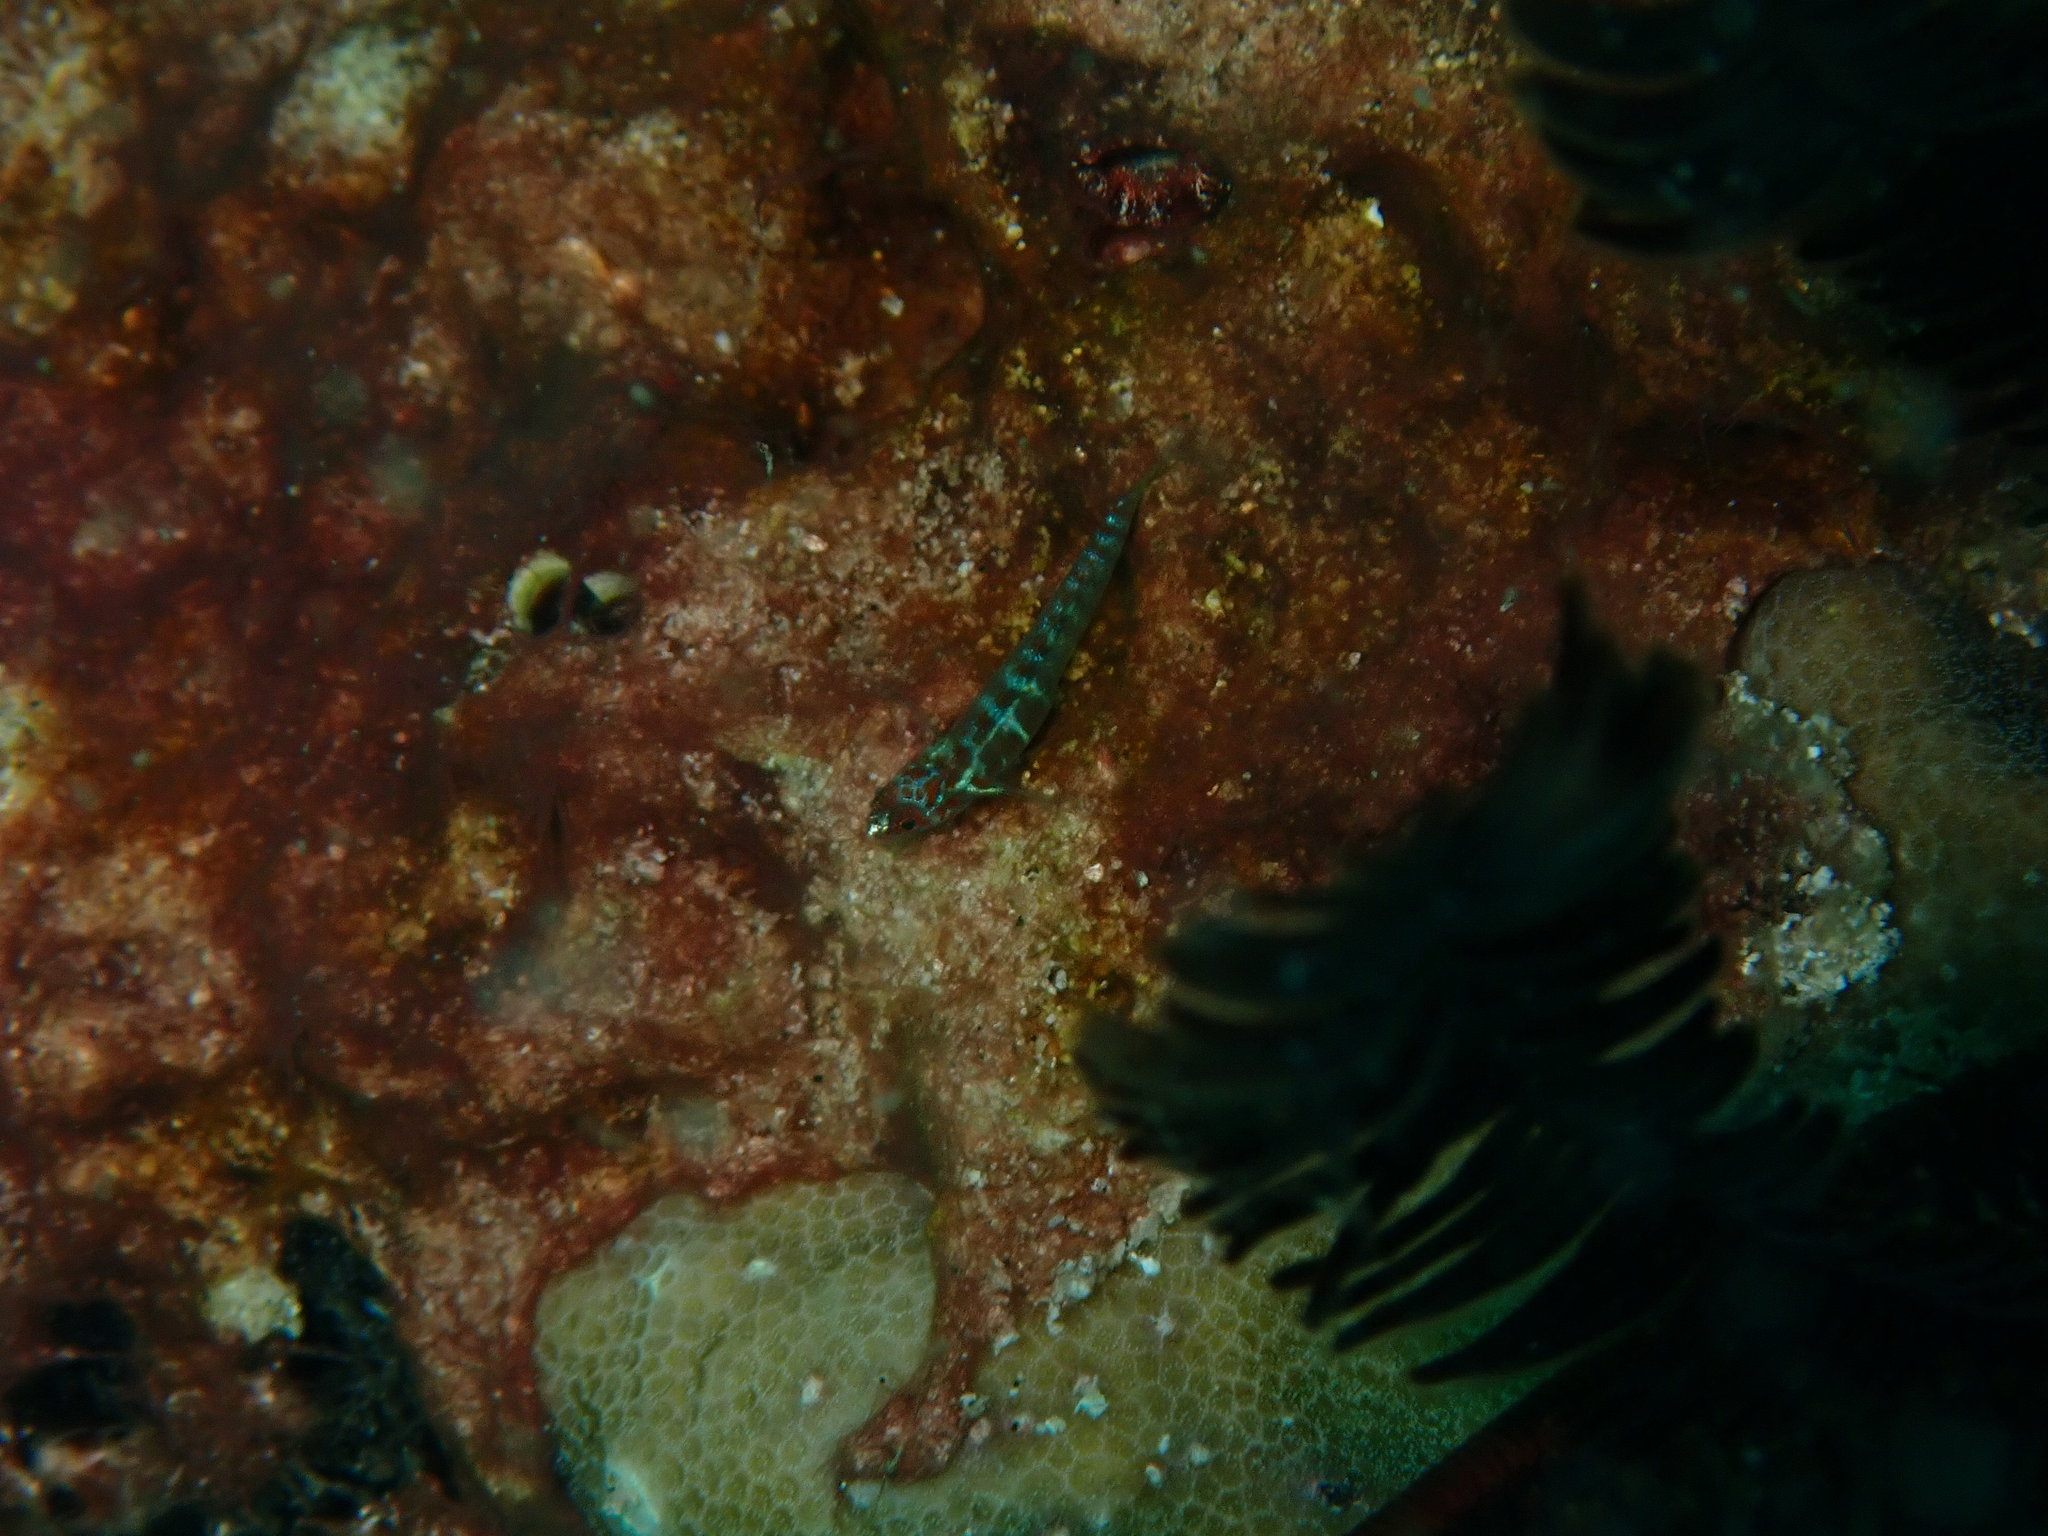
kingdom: Animalia
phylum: Chordata
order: Perciformes
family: Gobiidae
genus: Eviota
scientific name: Eviota maculosa
